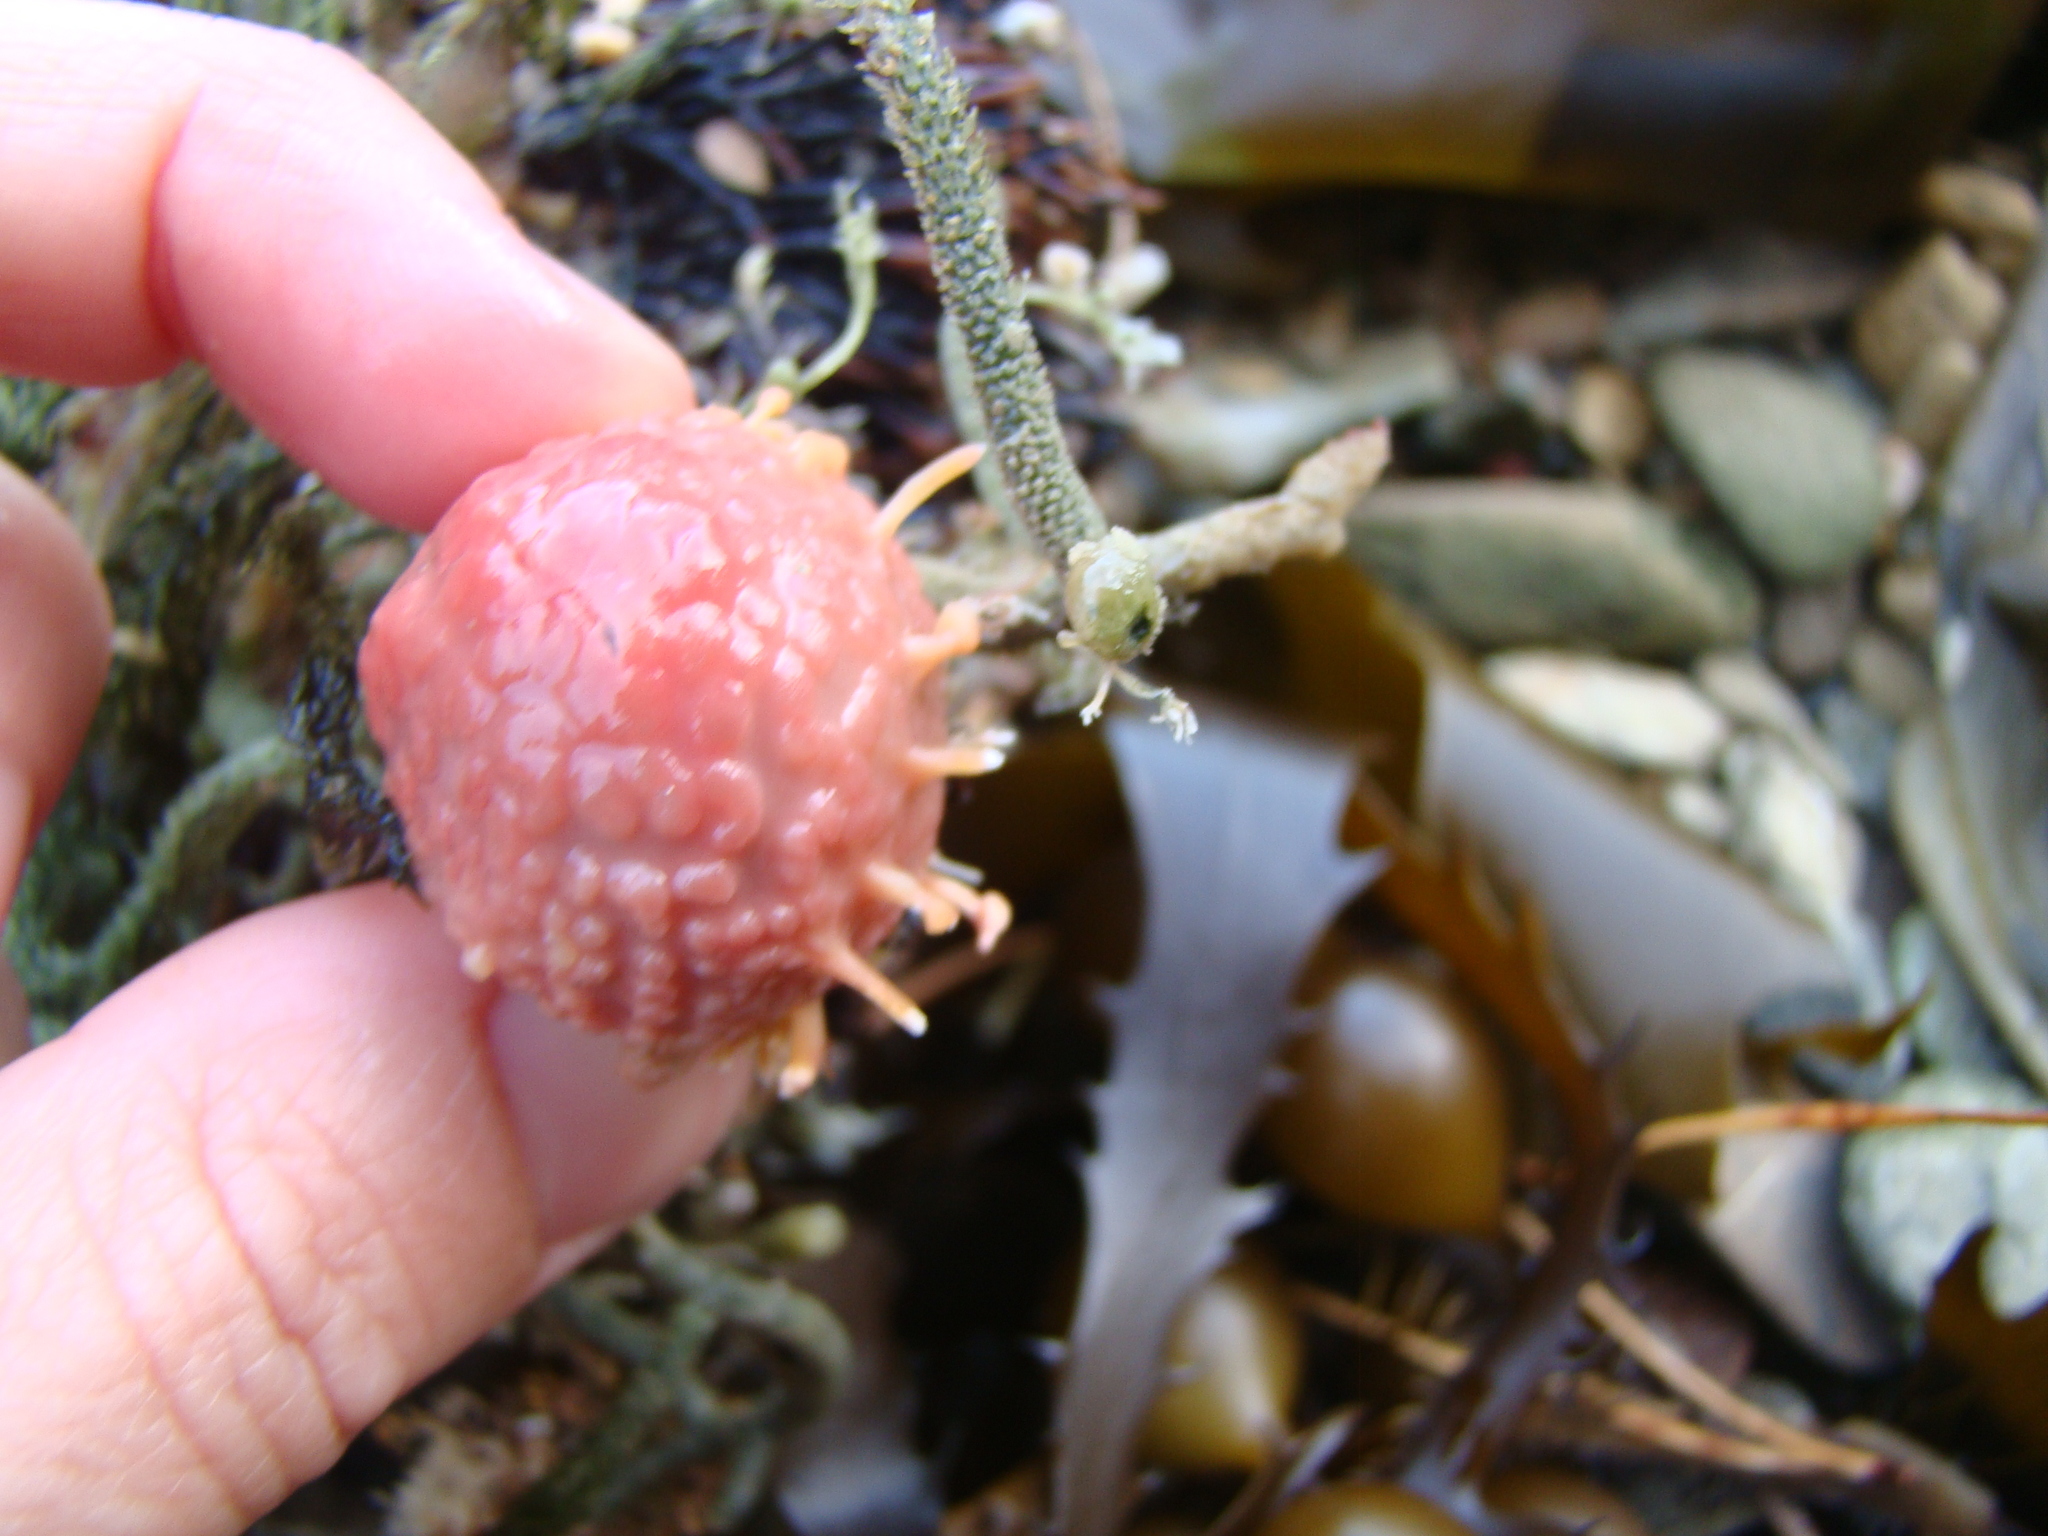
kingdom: Animalia
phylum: Porifera
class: Demospongiae
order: Tethyida
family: Tethyidae
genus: Tethya
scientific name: Tethya bergquistae
